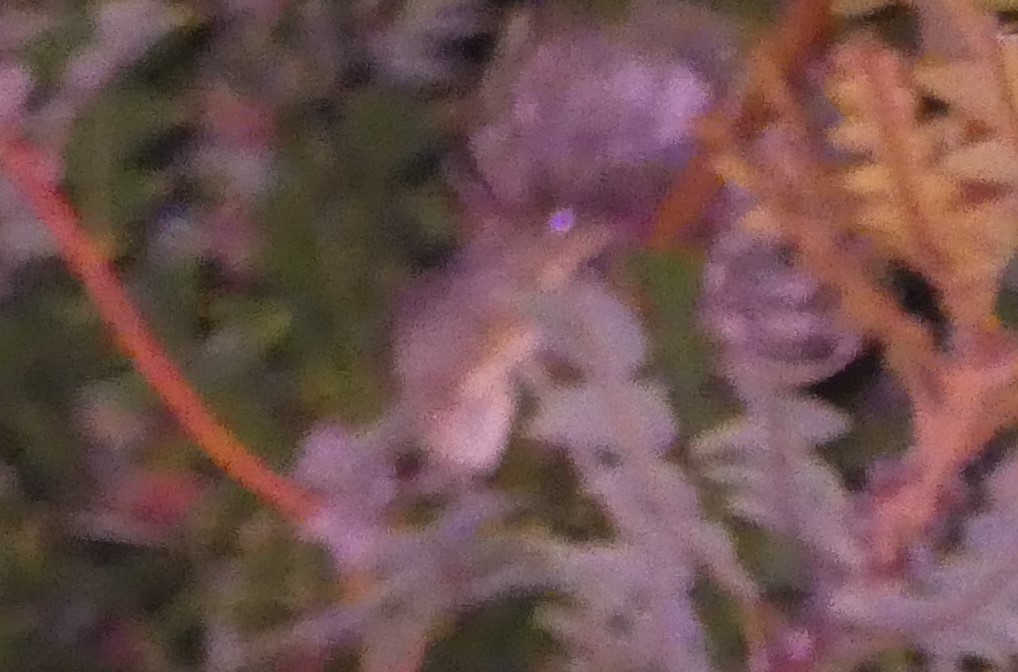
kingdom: Animalia
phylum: Chordata
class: Mammalia
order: Diprotodontia
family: Tarsipedidae
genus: Tarsipes
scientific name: Tarsipes rostratus
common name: Honey possum
